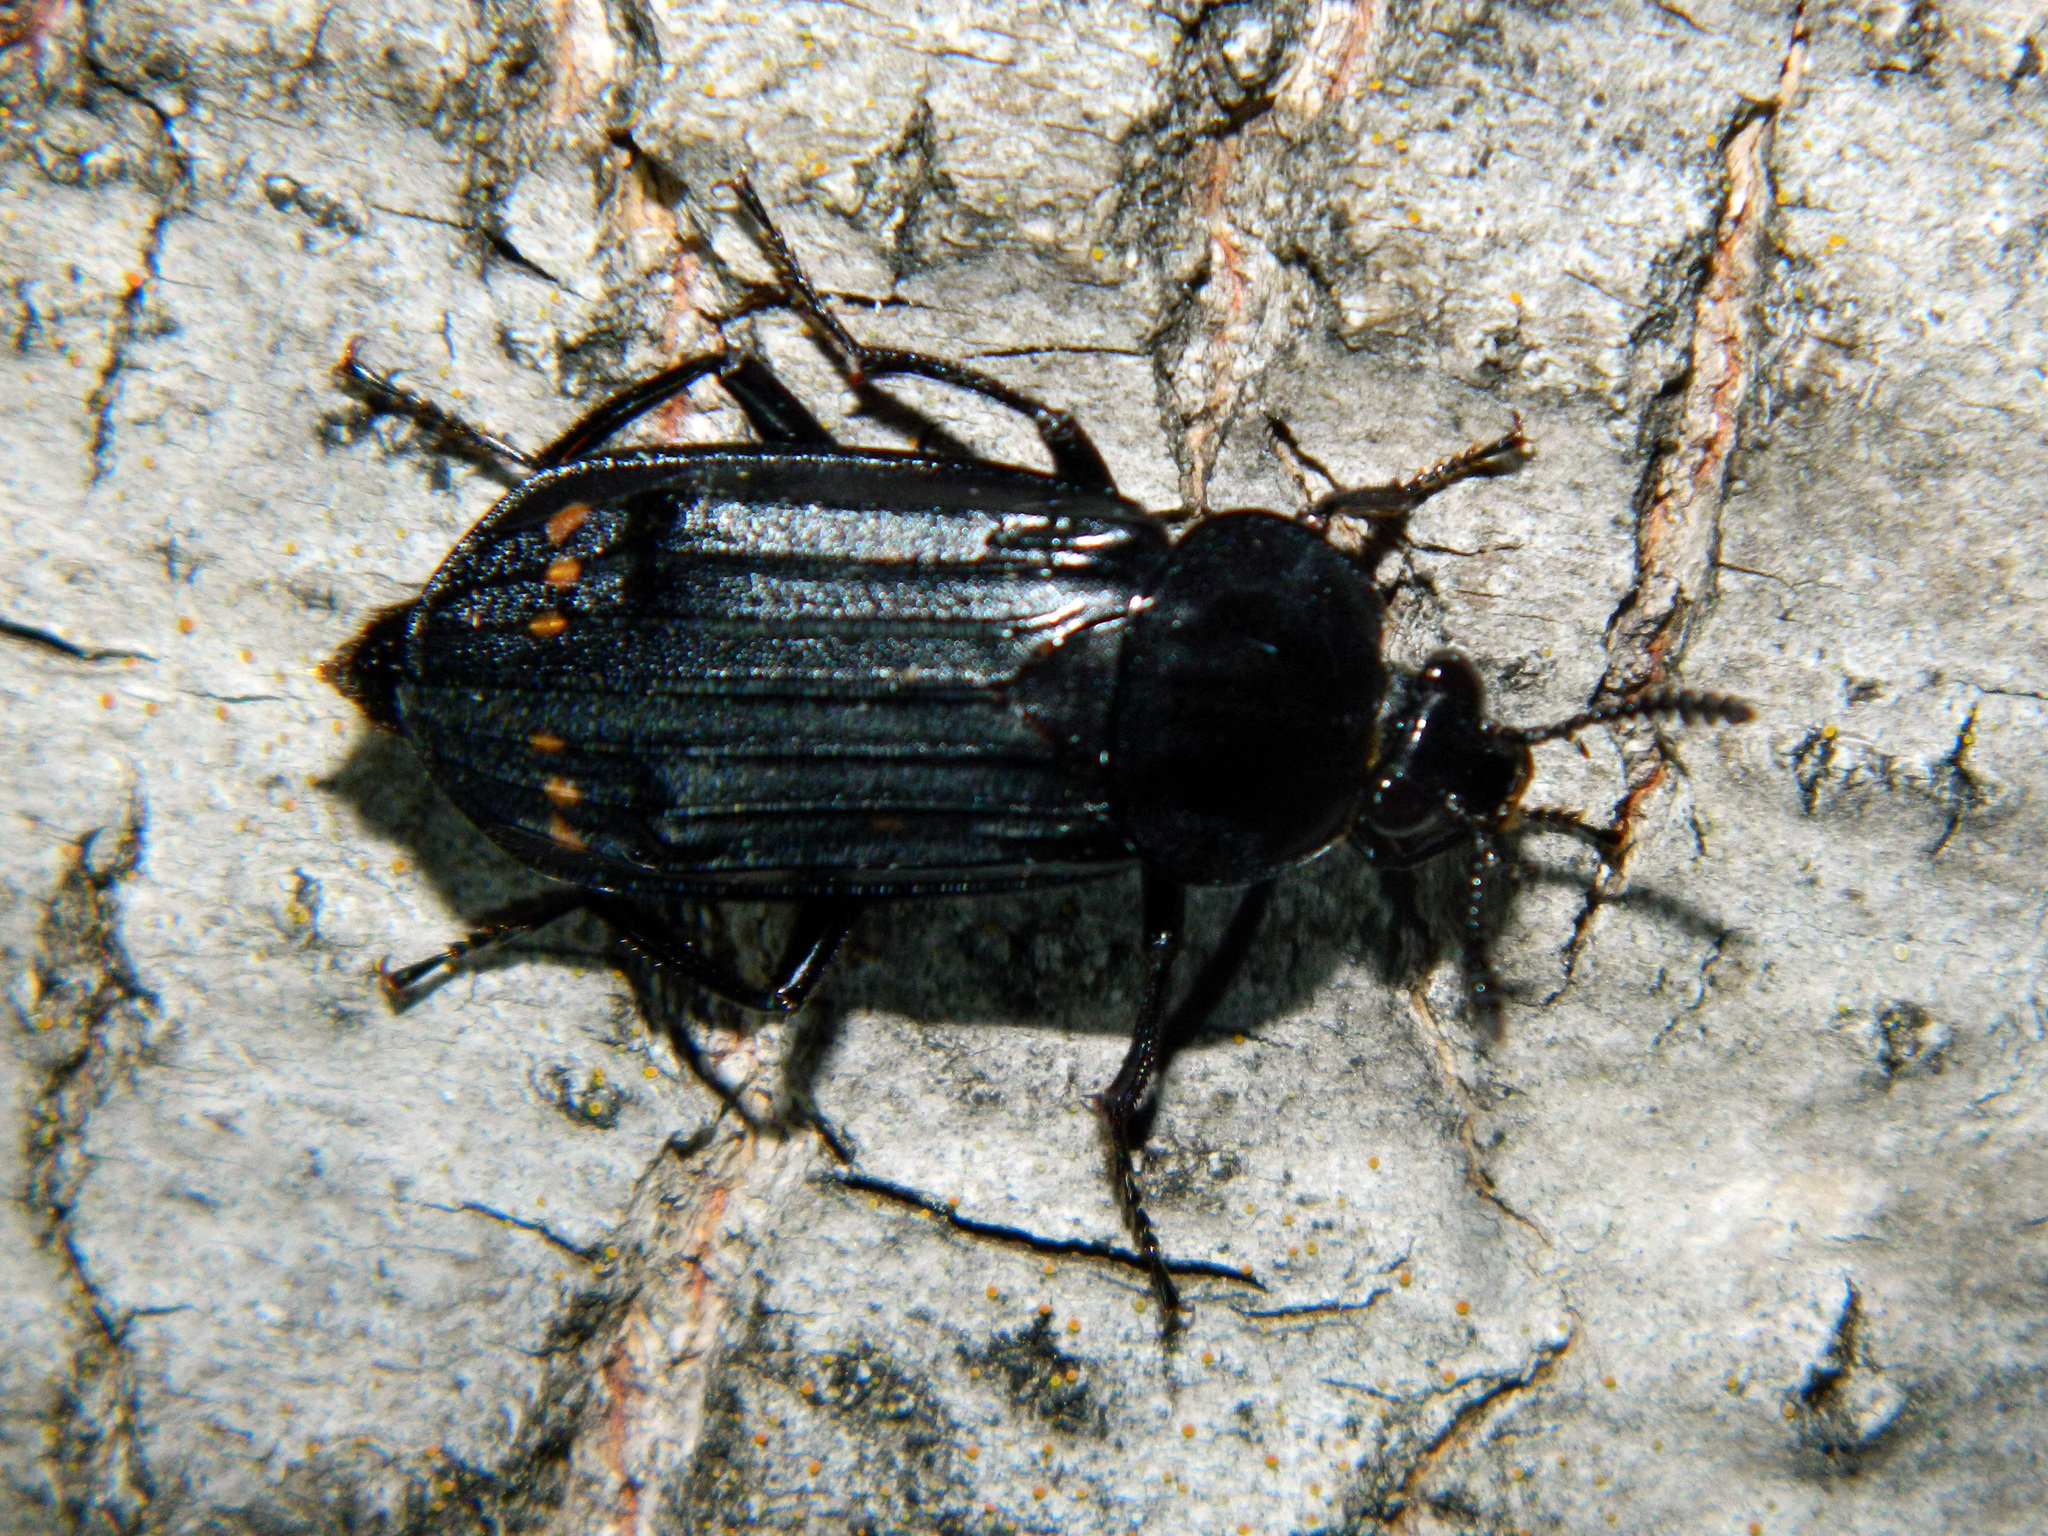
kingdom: Animalia
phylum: Arthropoda
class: Insecta
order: Coleoptera
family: Staphylinidae
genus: Necrodes
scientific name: Necrodes surinamensis
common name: Red-lined carrion beetle
